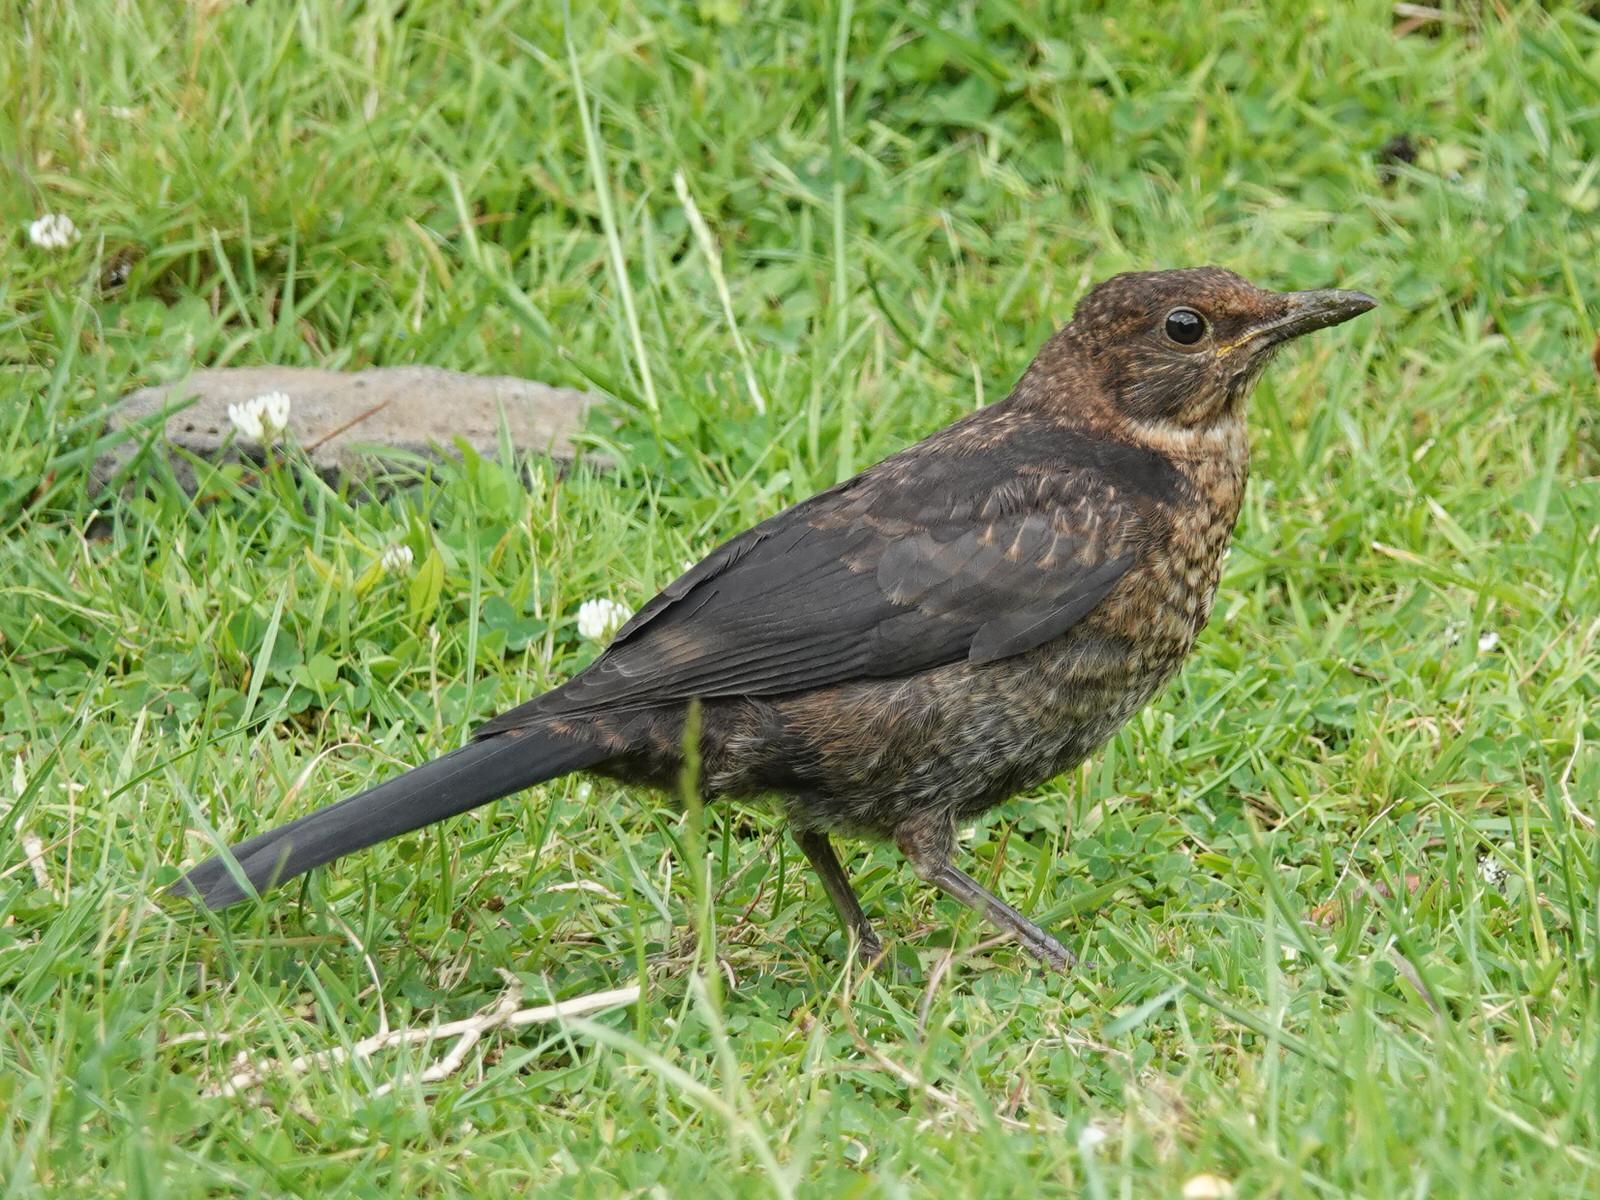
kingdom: Animalia
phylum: Chordata
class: Aves
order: Passeriformes
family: Turdidae
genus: Turdus
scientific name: Turdus merula
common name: Common blackbird
